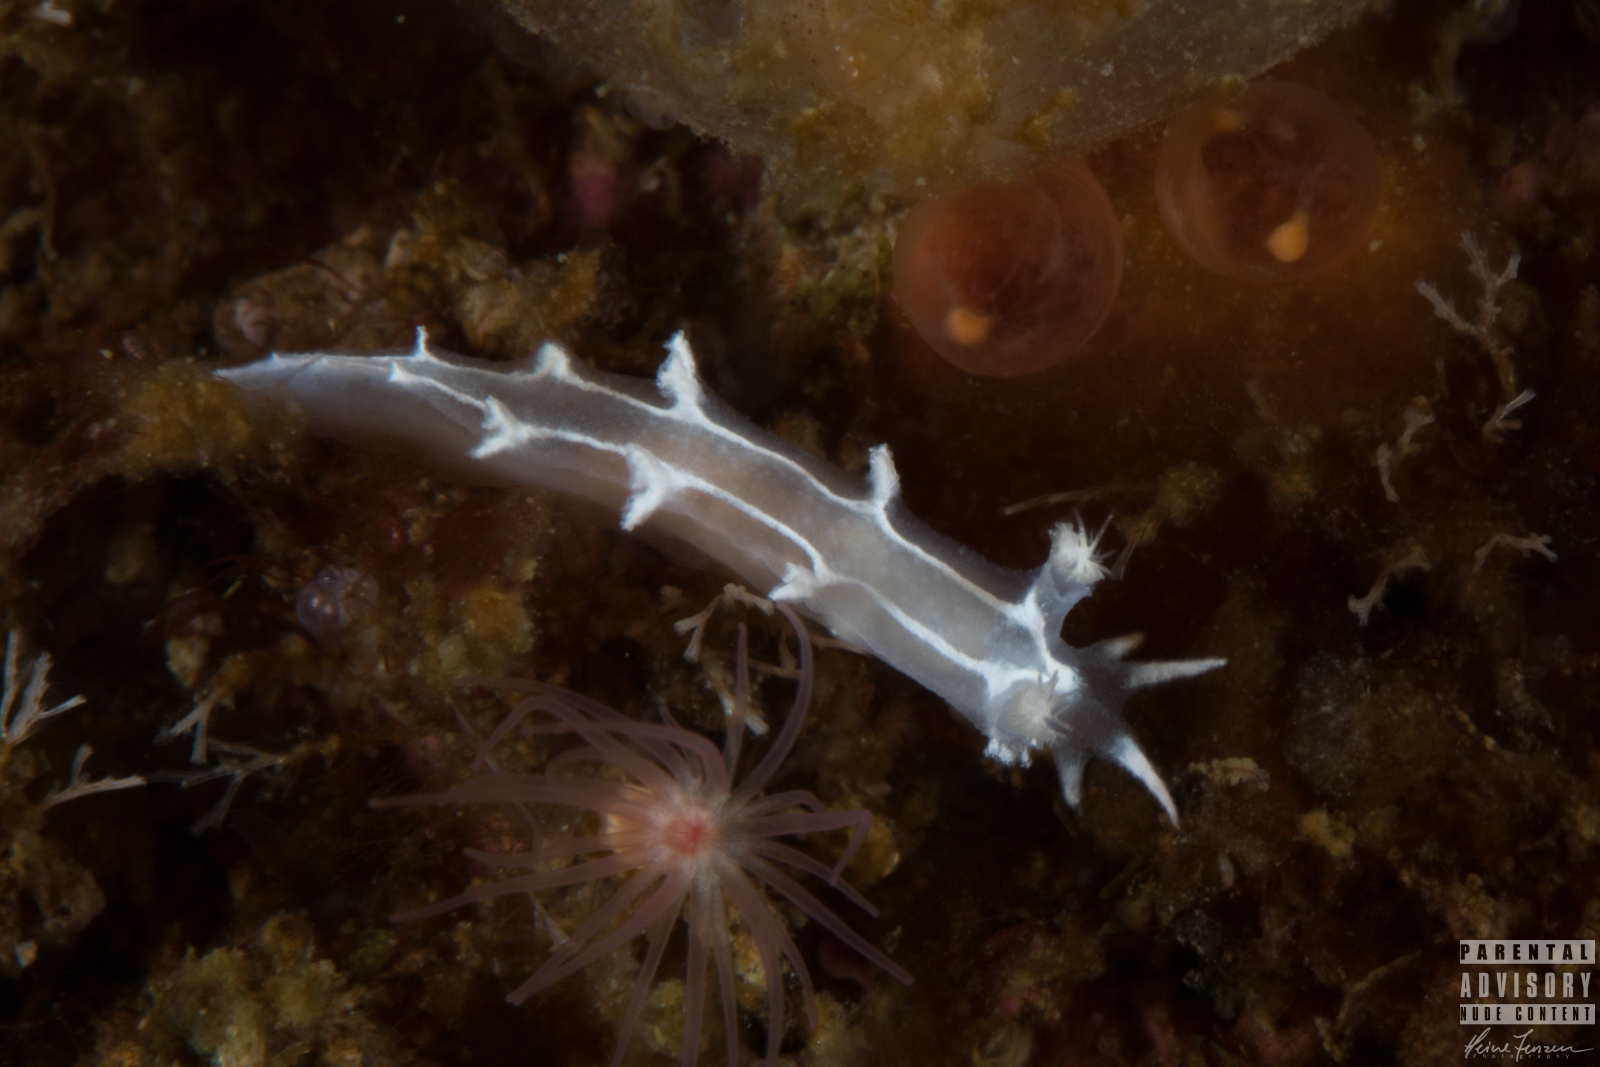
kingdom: Animalia
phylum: Mollusca
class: Gastropoda
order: Nudibranchia
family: Tritoniidae
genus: Duvaucelia
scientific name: Duvaucelia lineata
